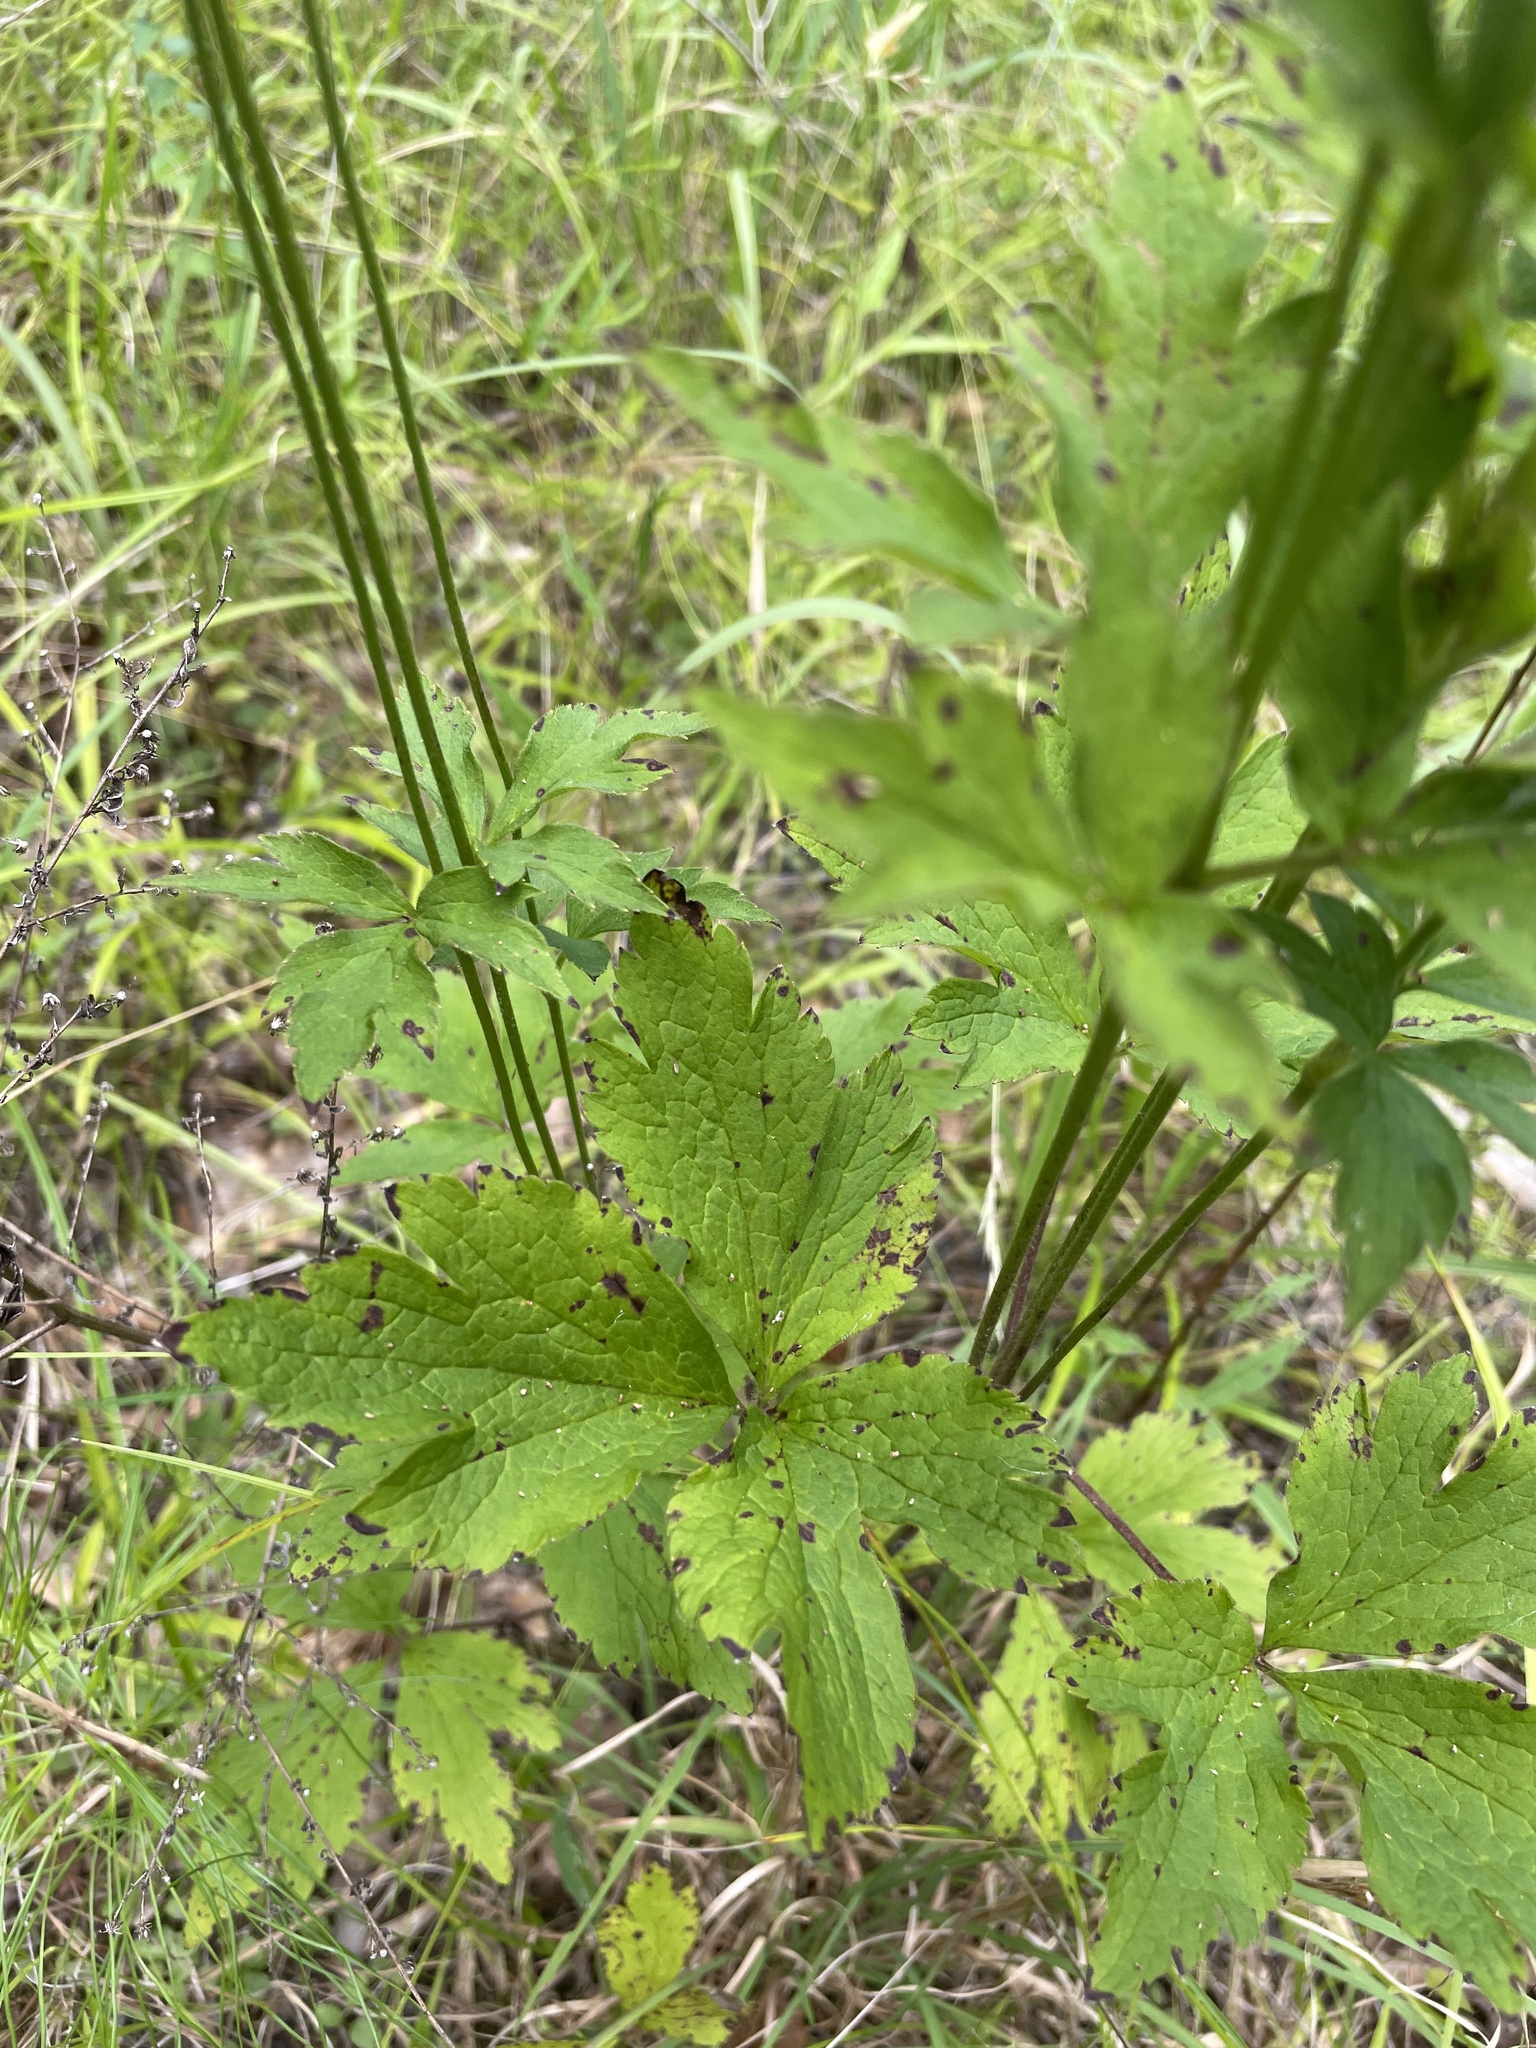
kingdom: Plantae
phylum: Tracheophyta
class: Magnoliopsida
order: Ranunculales
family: Ranunculaceae
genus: Anemone
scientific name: Anemone virginiana
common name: Tall anemone
